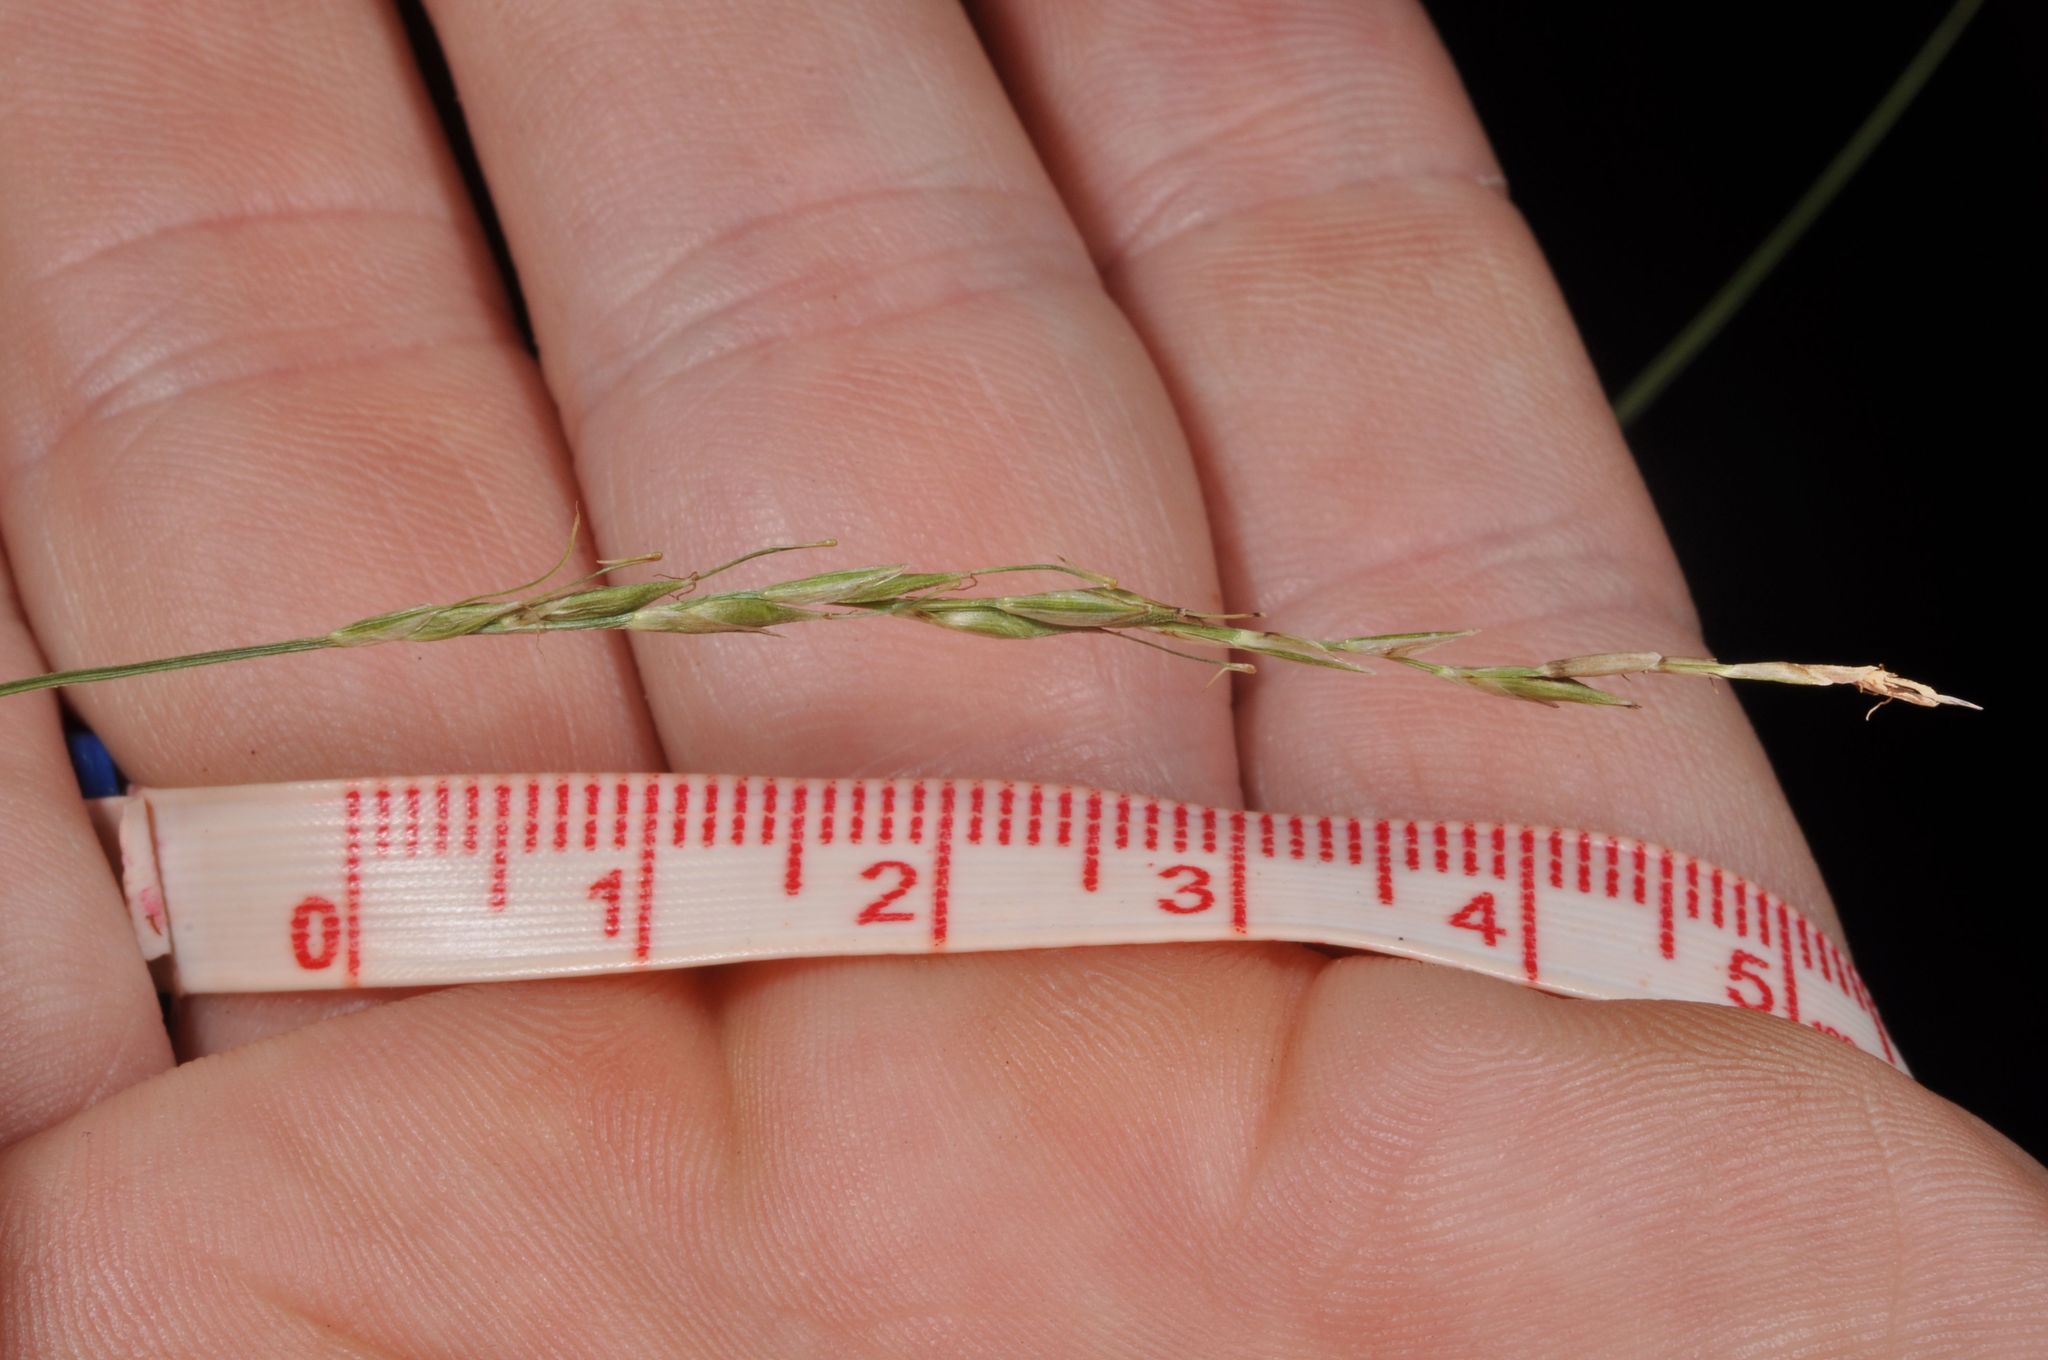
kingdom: Plantae
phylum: Tracheophyta
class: Liliopsida
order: Poales
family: Cyperaceae
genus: Carex
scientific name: Carex healyi
